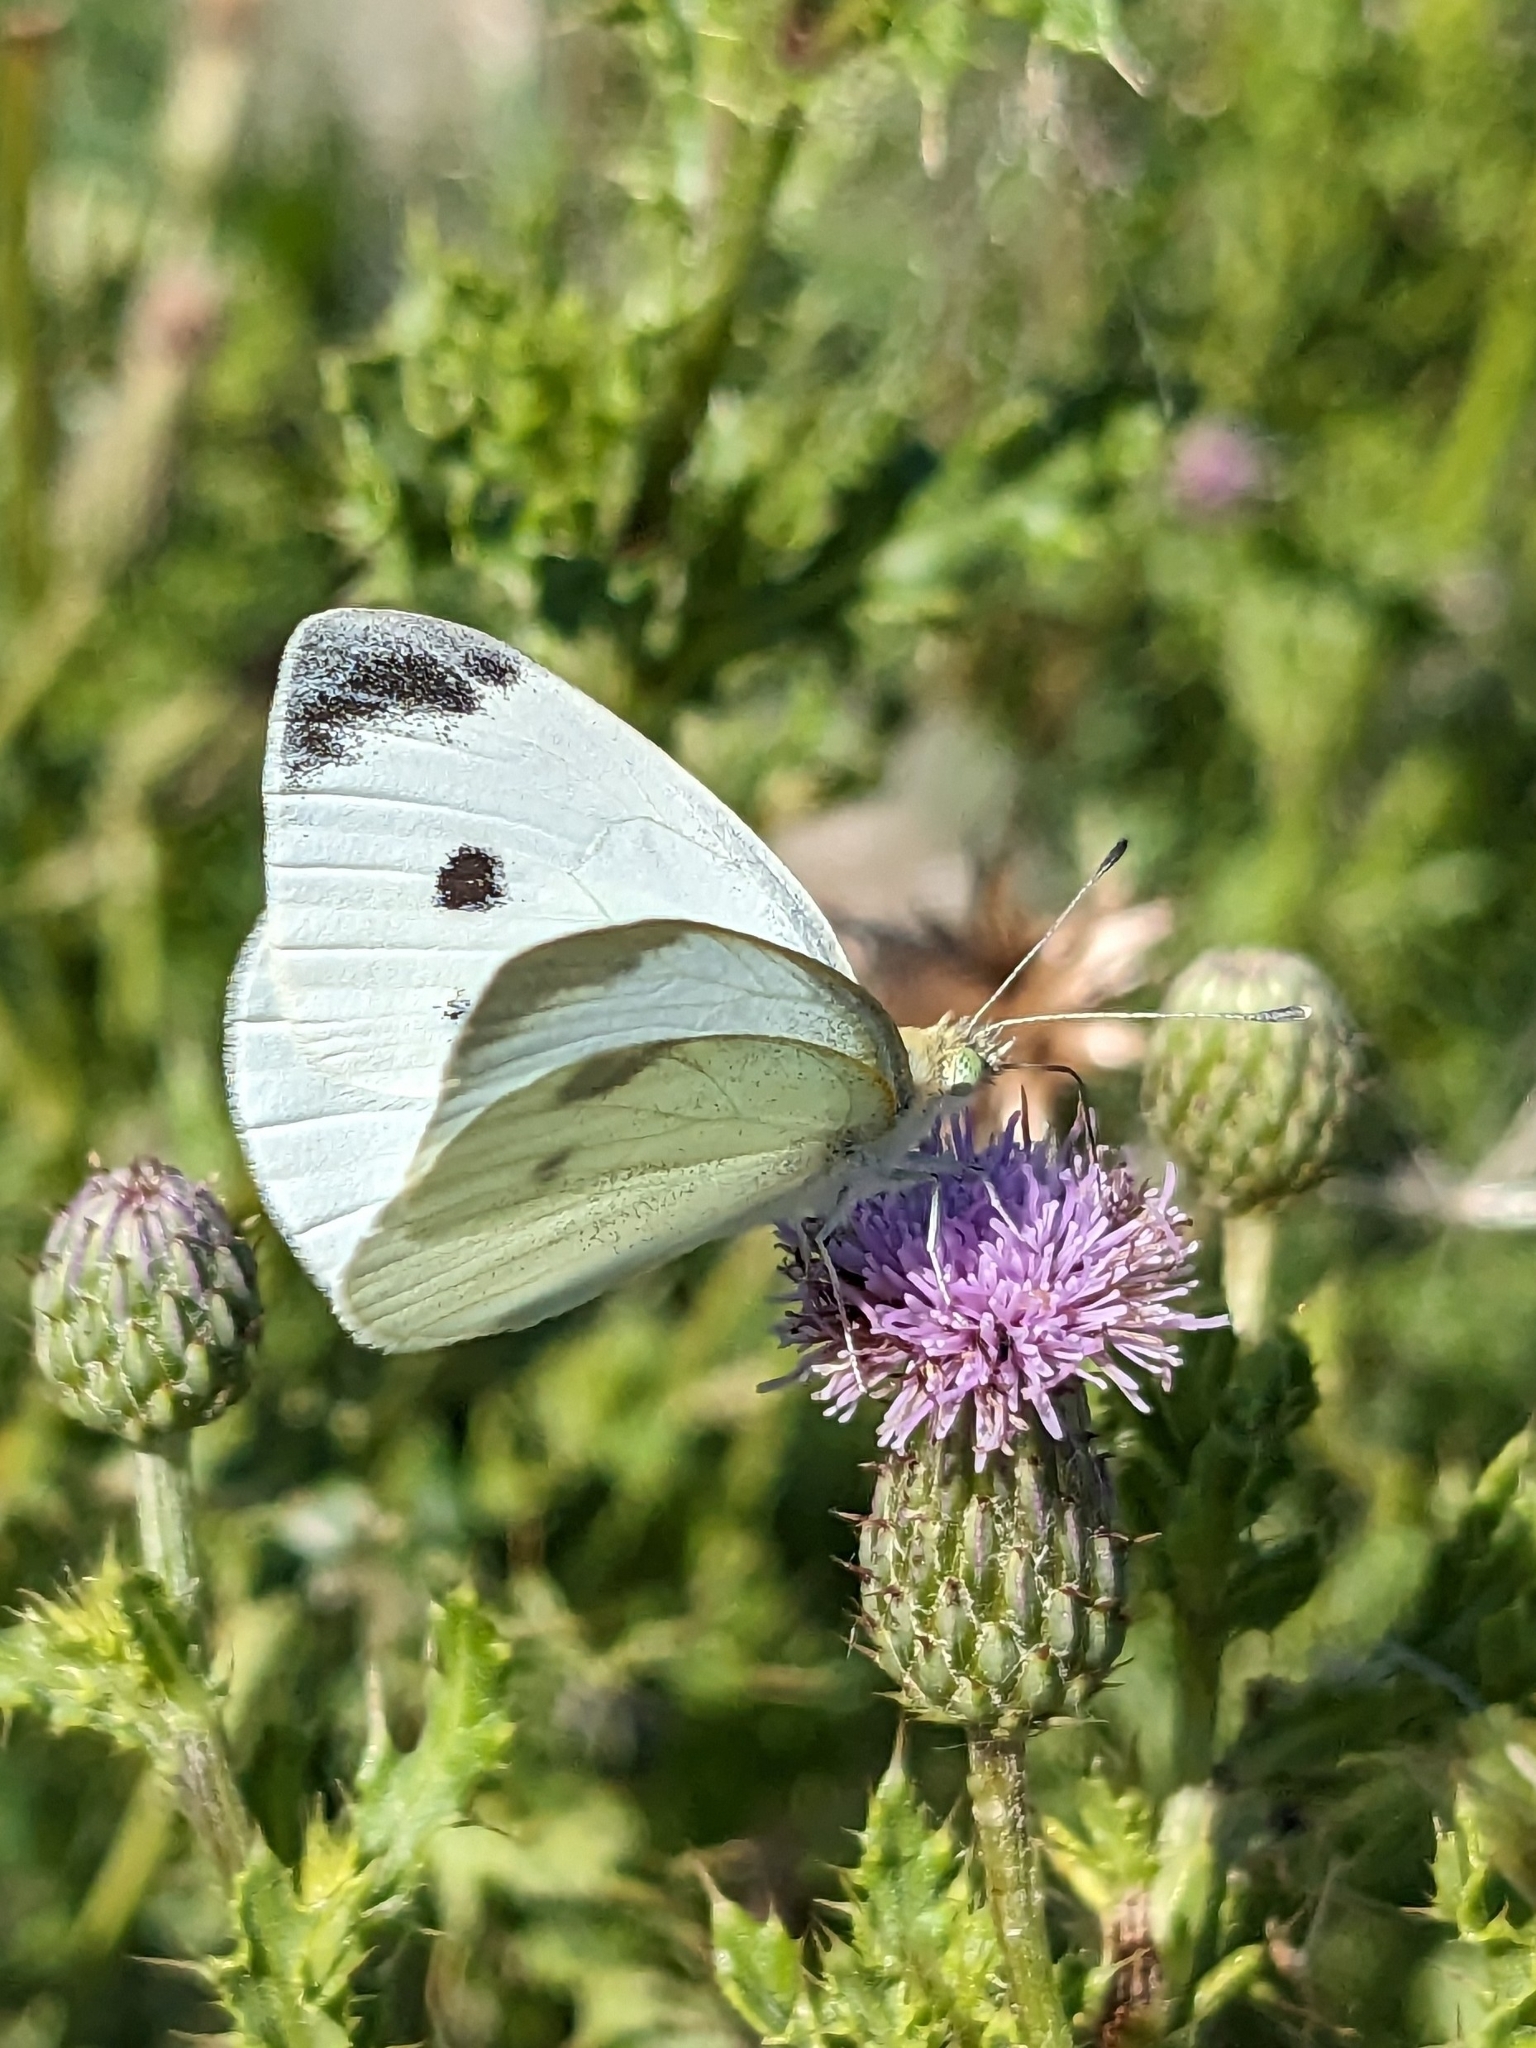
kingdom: Animalia
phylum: Arthropoda
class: Insecta
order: Lepidoptera
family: Pieridae
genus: Pieris
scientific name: Pieris rapae
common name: Small white
